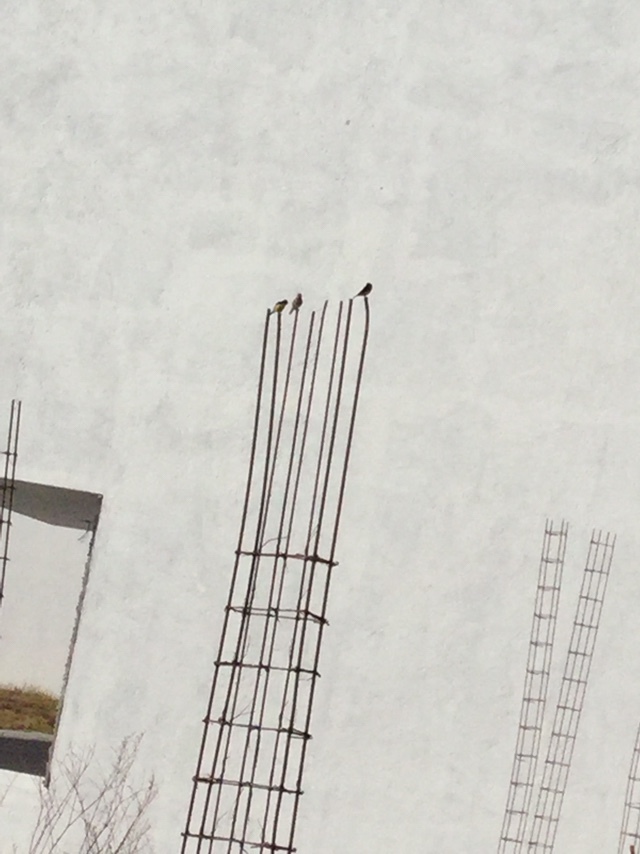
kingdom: Animalia
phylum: Chordata
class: Aves
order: Passeriformes
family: Fringillidae
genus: Spinus
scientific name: Spinus psaltria
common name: Lesser goldfinch
